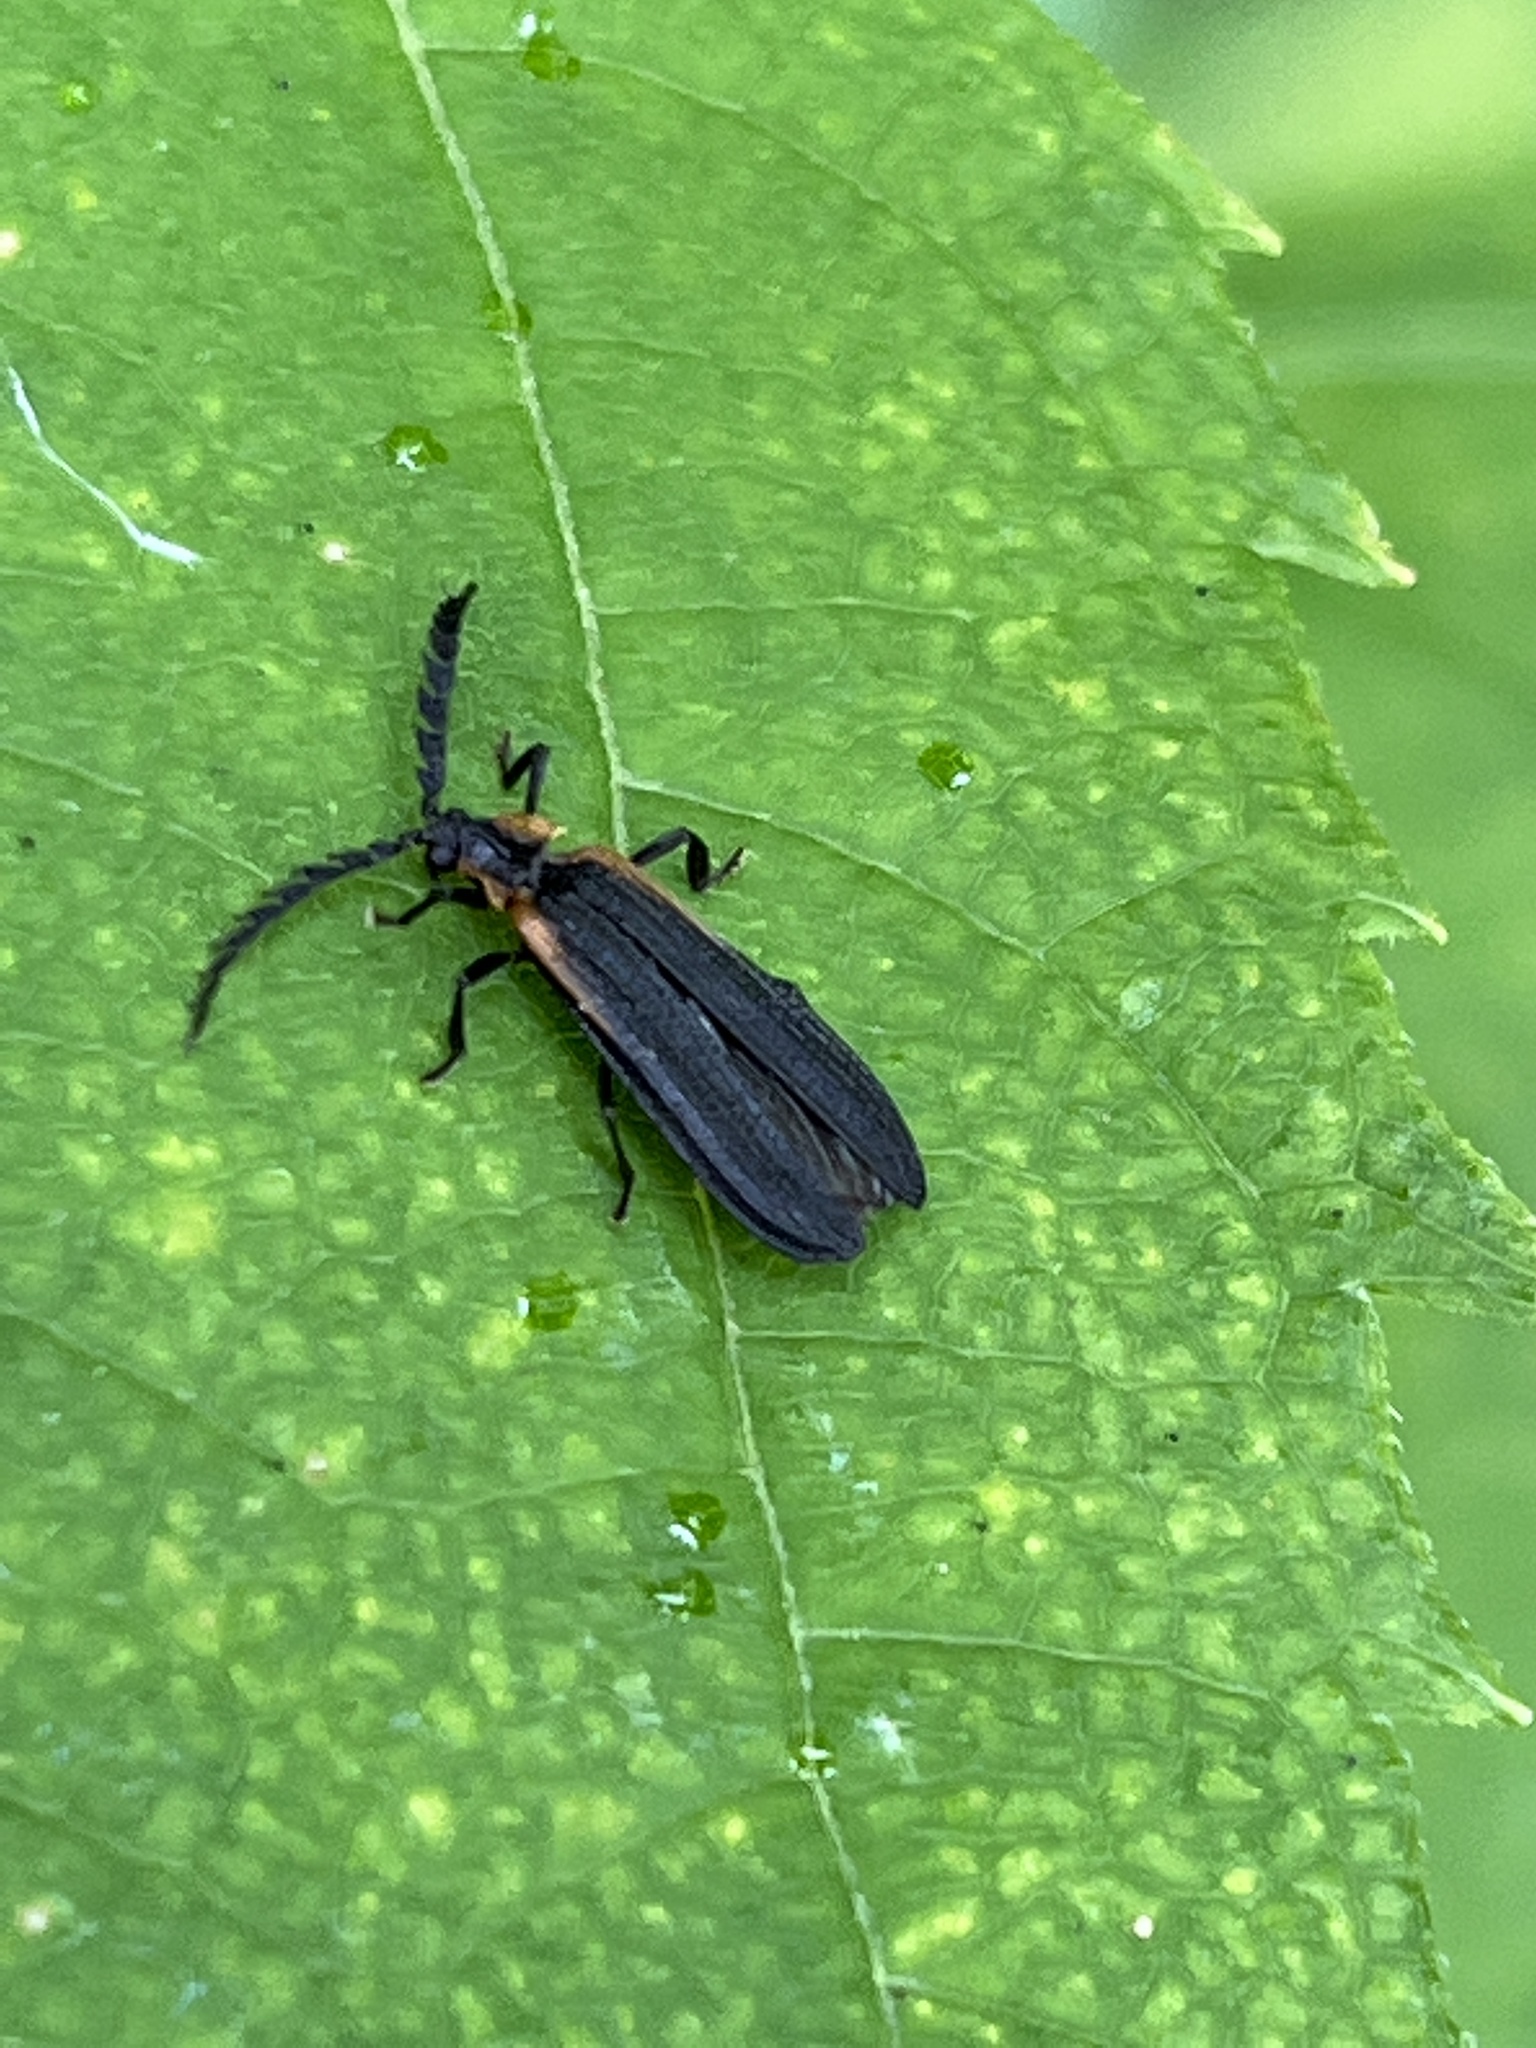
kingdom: Animalia
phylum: Arthropoda
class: Insecta
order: Coleoptera
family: Lycidae
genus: Leptoceletes
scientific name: Leptoceletes basalis
